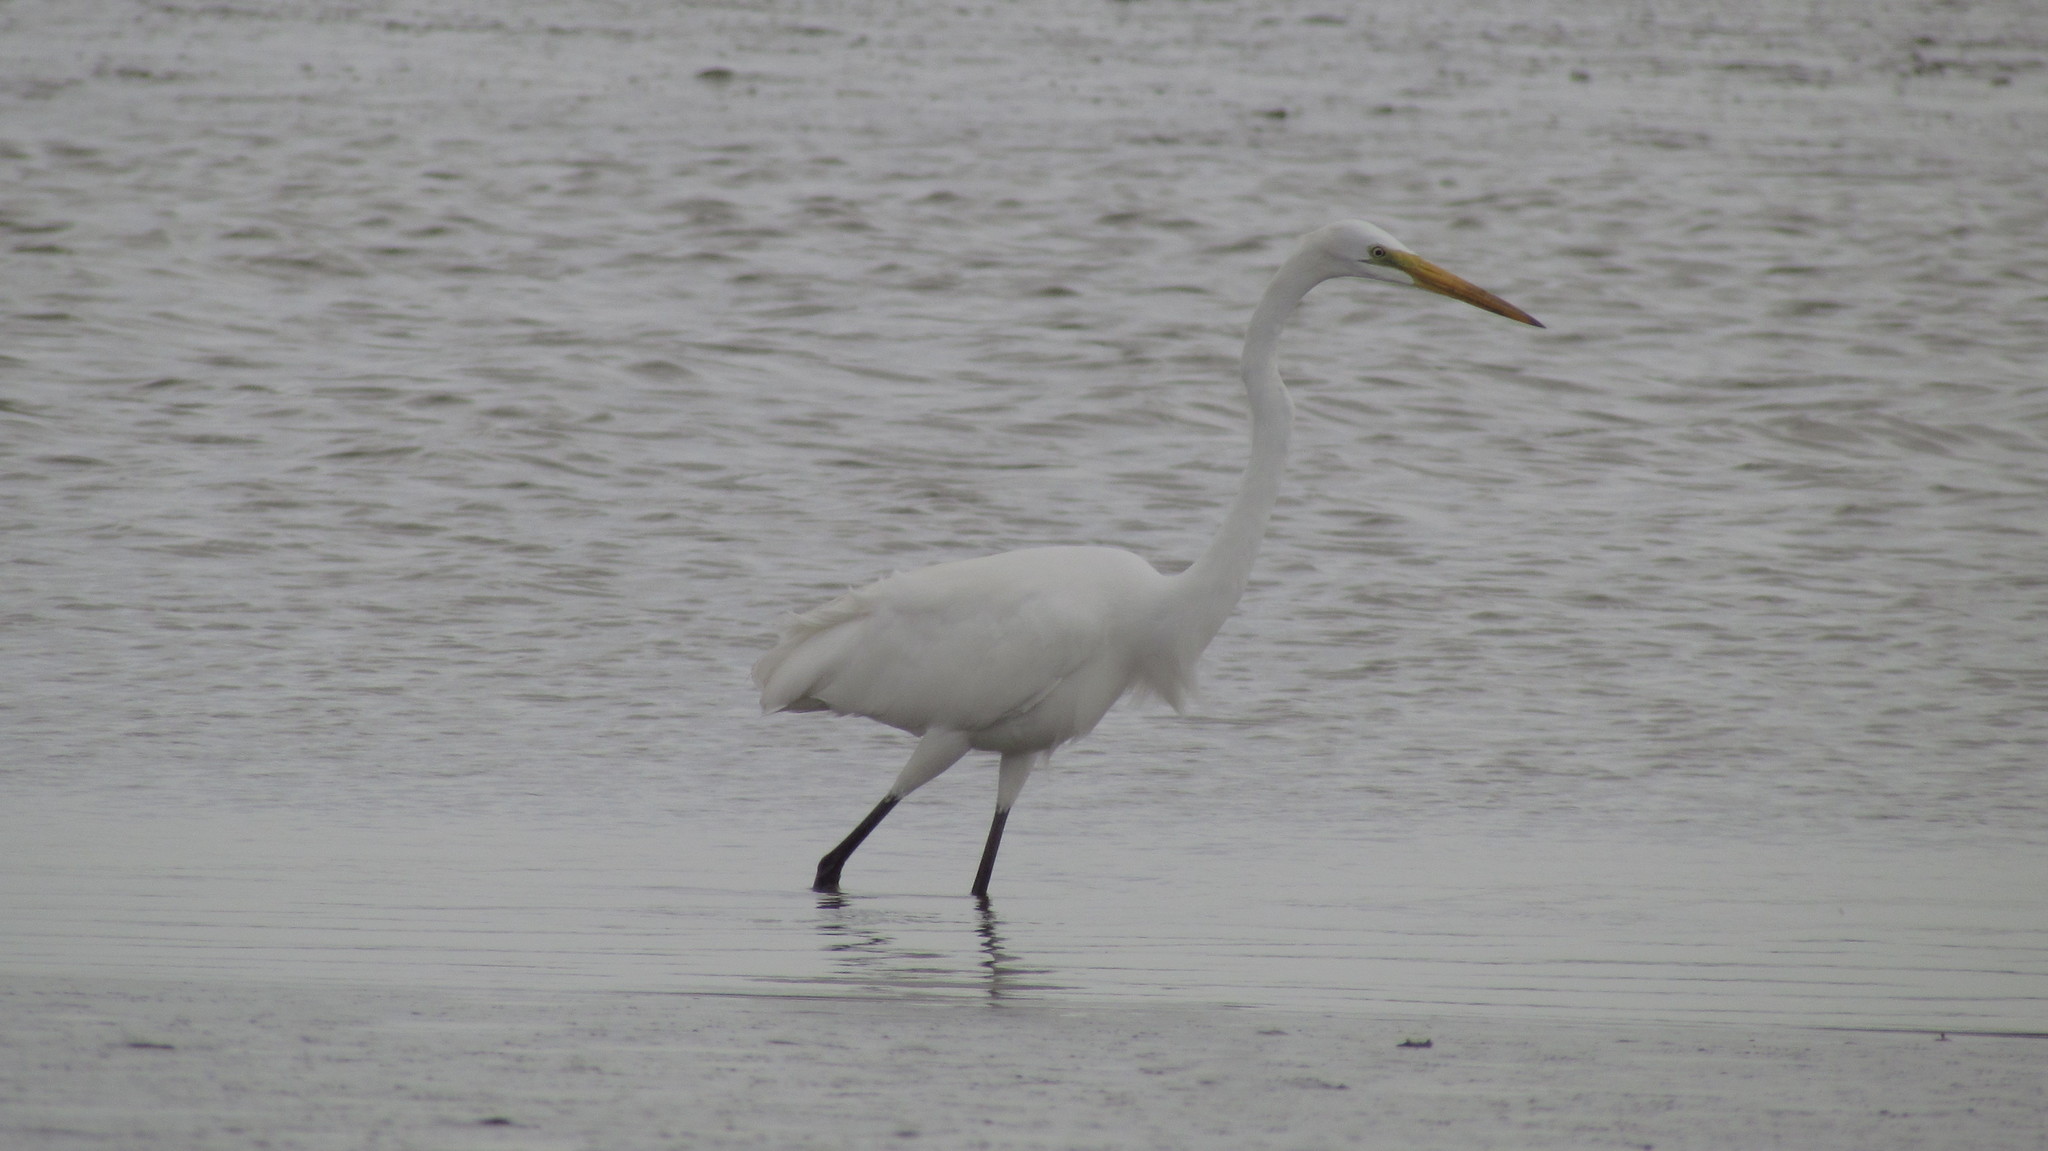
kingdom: Animalia
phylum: Chordata
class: Aves
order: Pelecaniformes
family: Ardeidae
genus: Ardea
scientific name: Ardea alba
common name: Great egret
